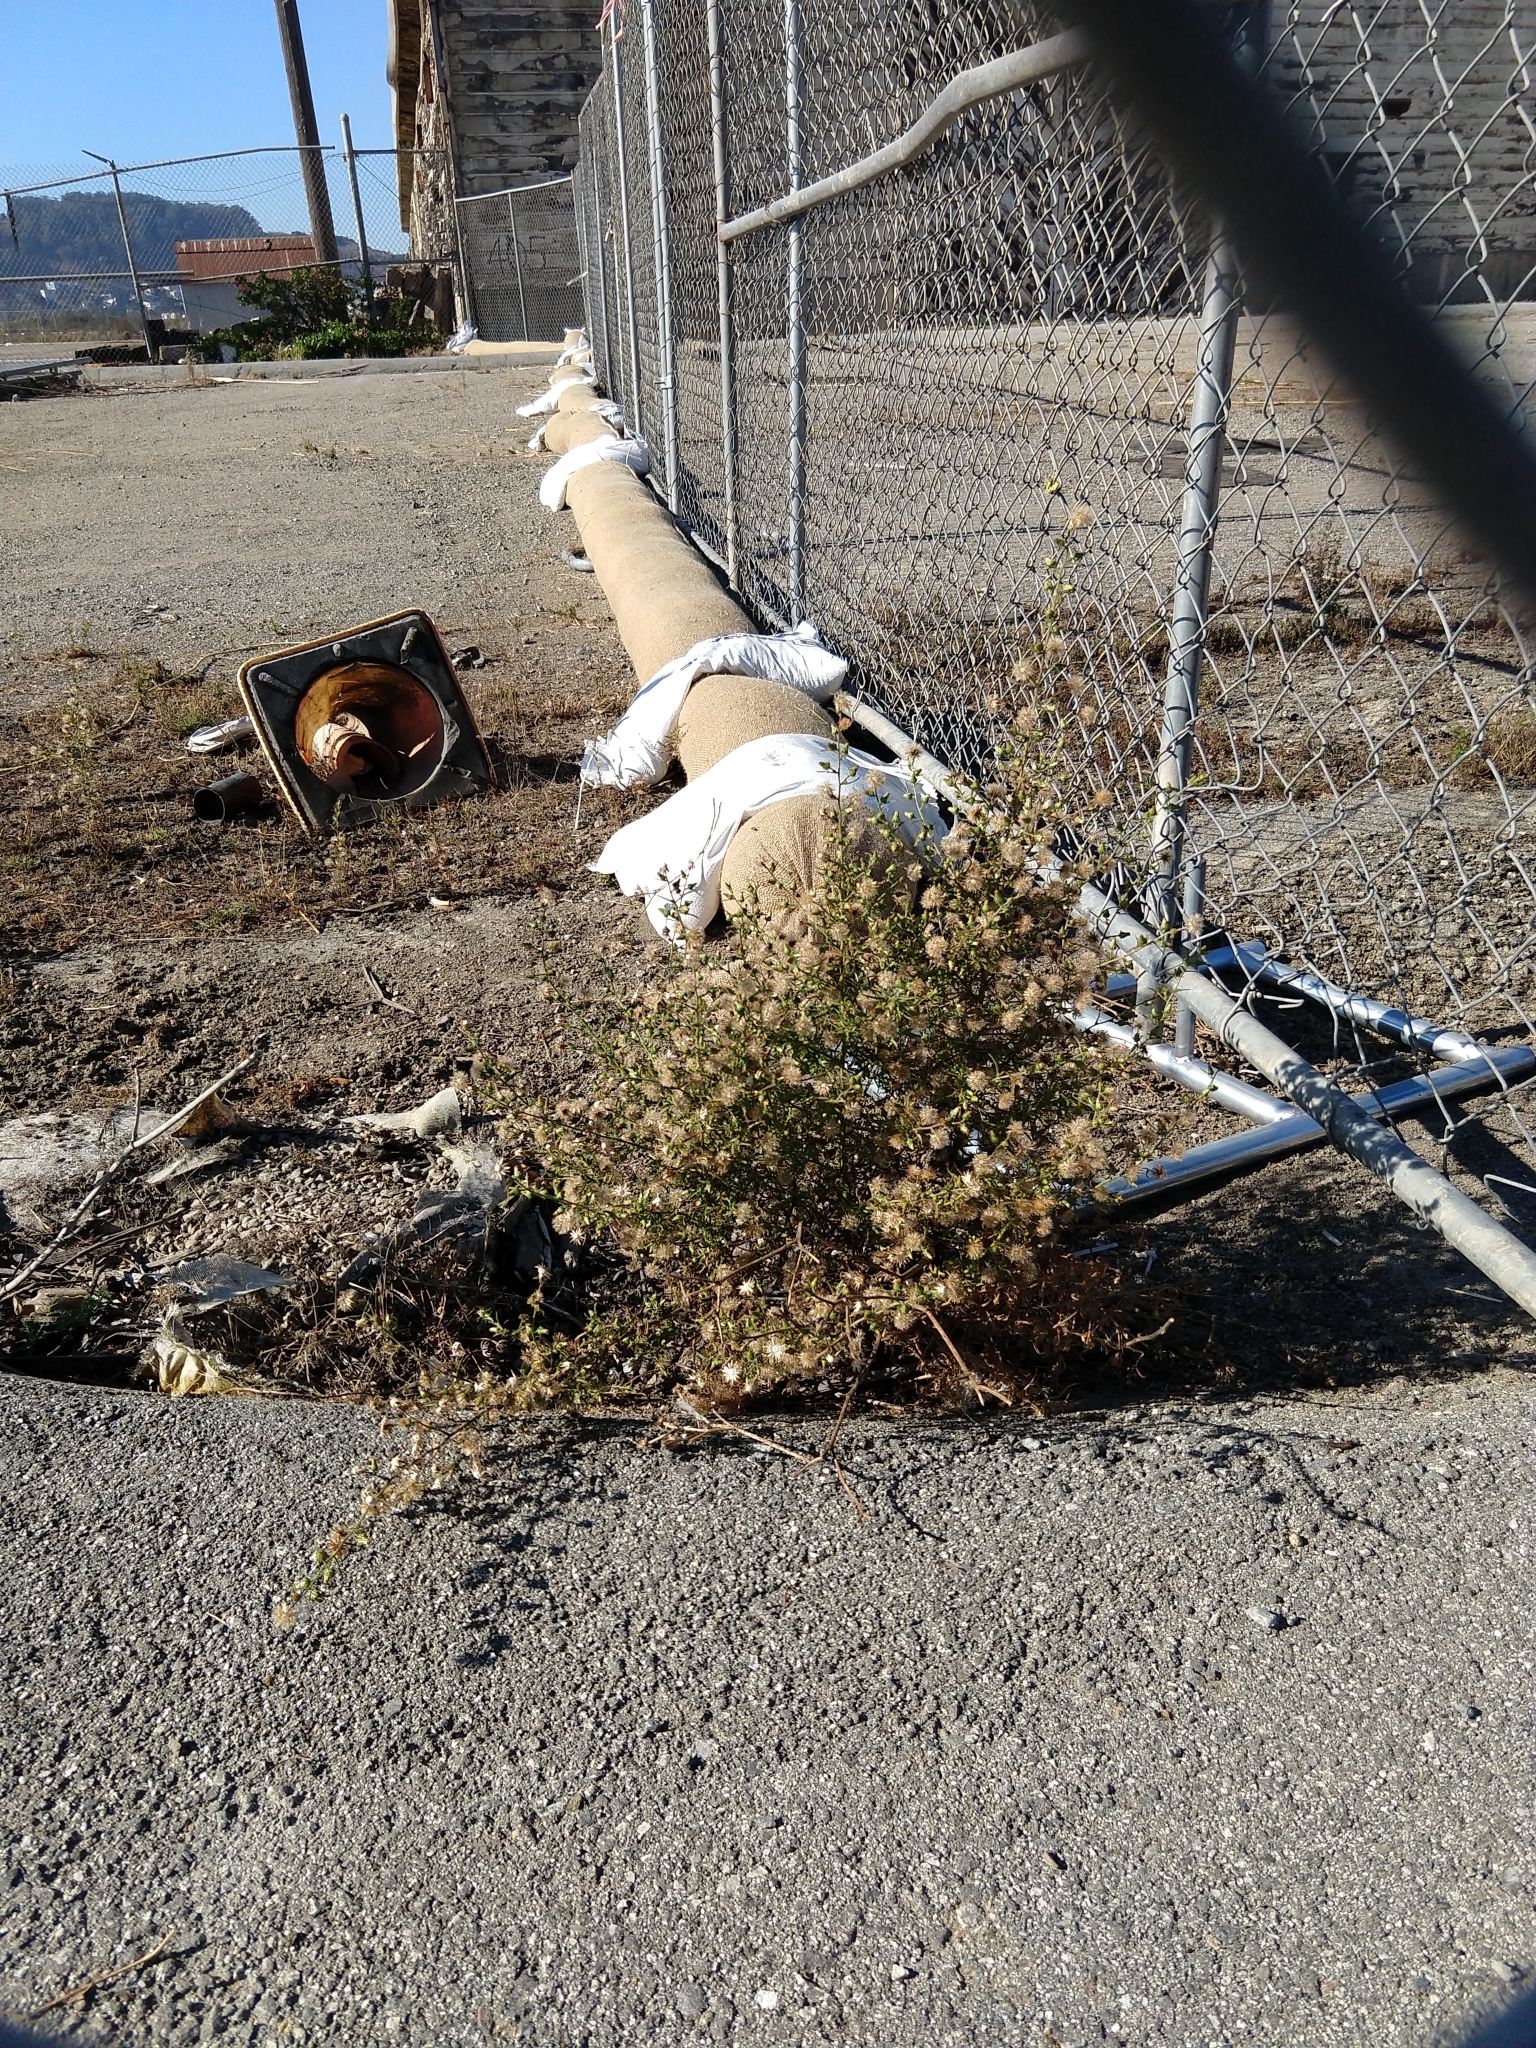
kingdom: Plantae
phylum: Tracheophyta
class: Magnoliopsida
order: Asterales
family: Asteraceae
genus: Dittrichia
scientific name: Dittrichia graveolens
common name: Stinking fleabane
